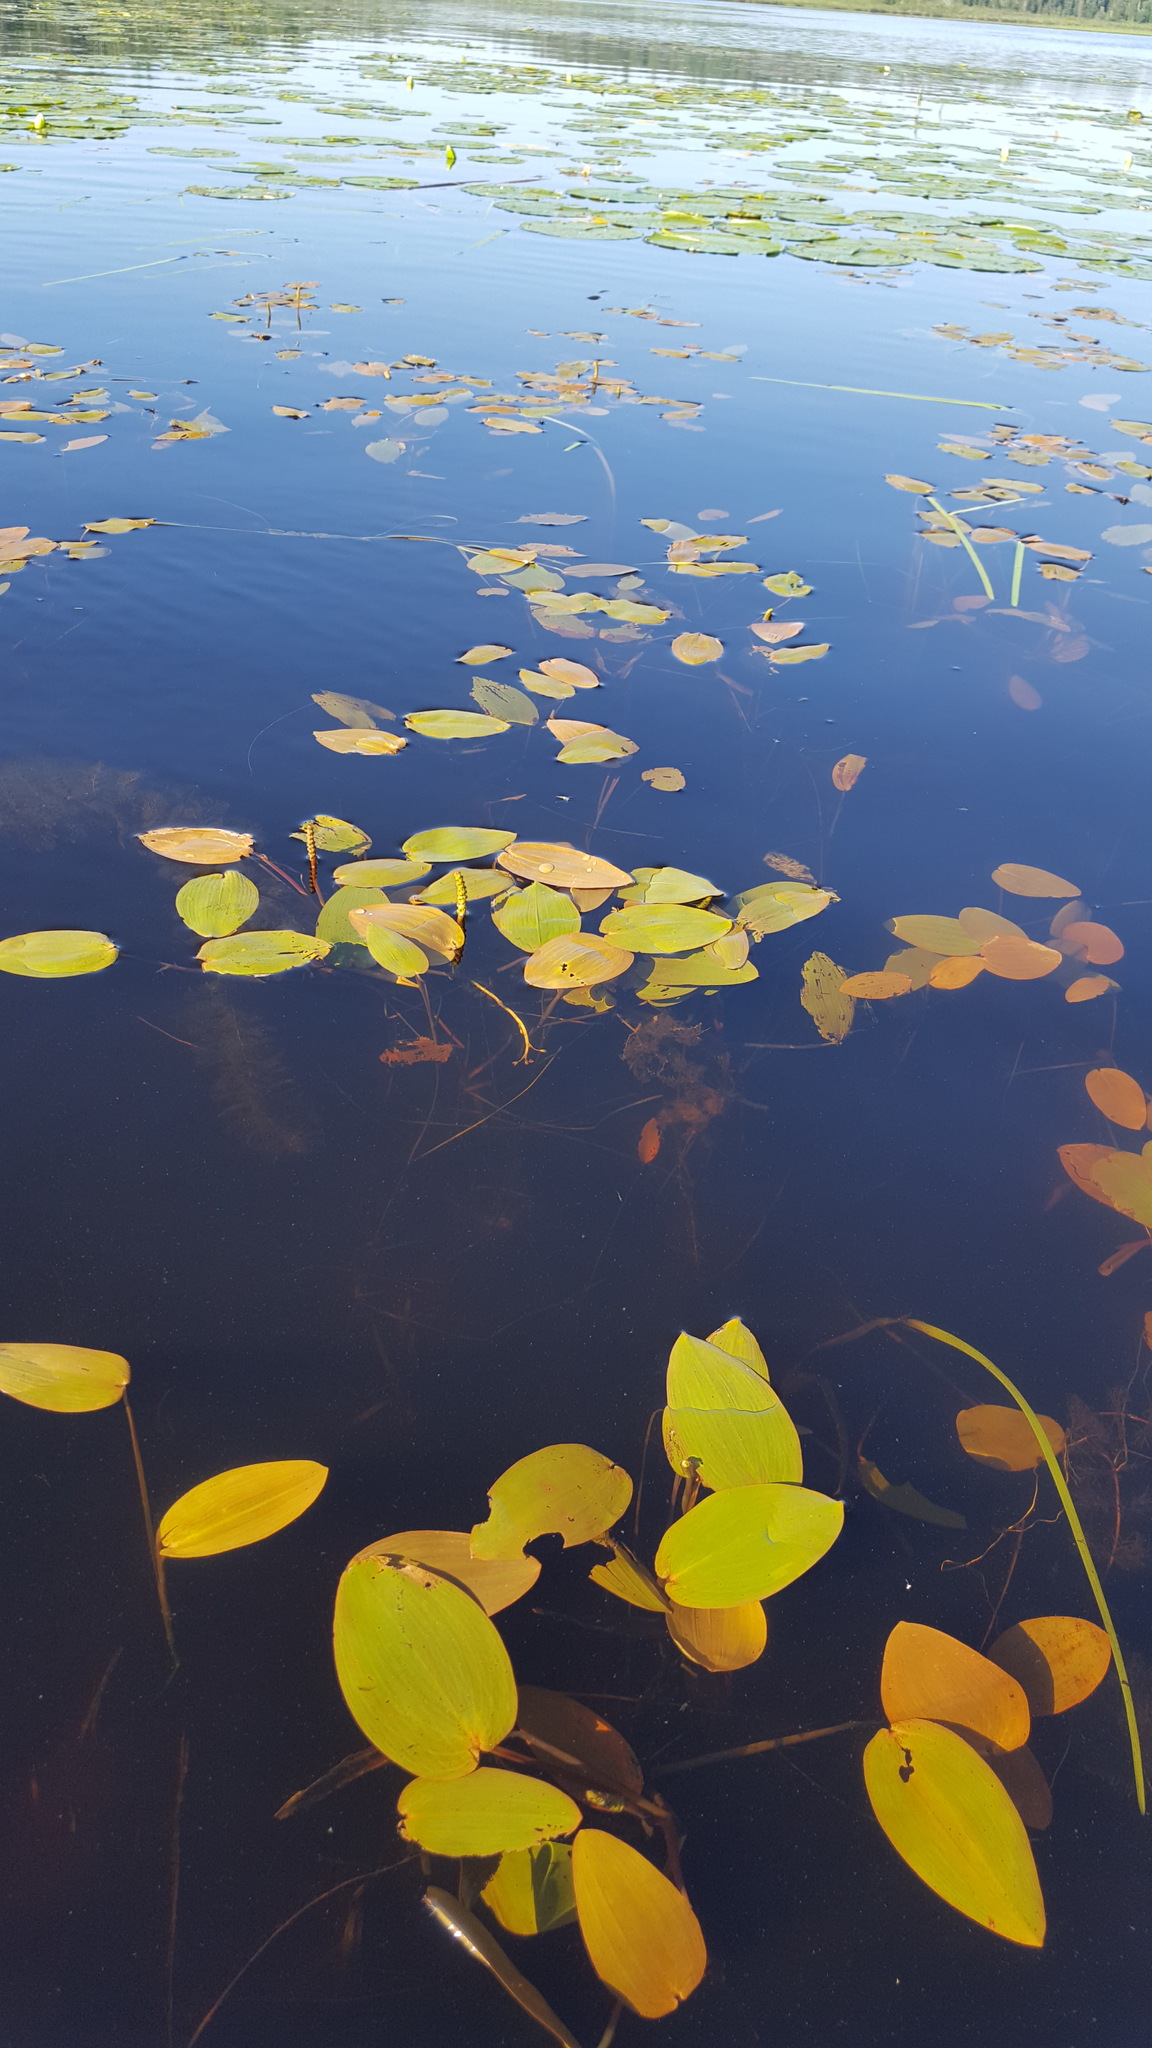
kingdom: Plantae
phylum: Tracheophyta
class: Liliopsida
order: Alismatales
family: Potamogetonaceae
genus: Potamogeton
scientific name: Potamogeton natans
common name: Broad-leaved pondweed
